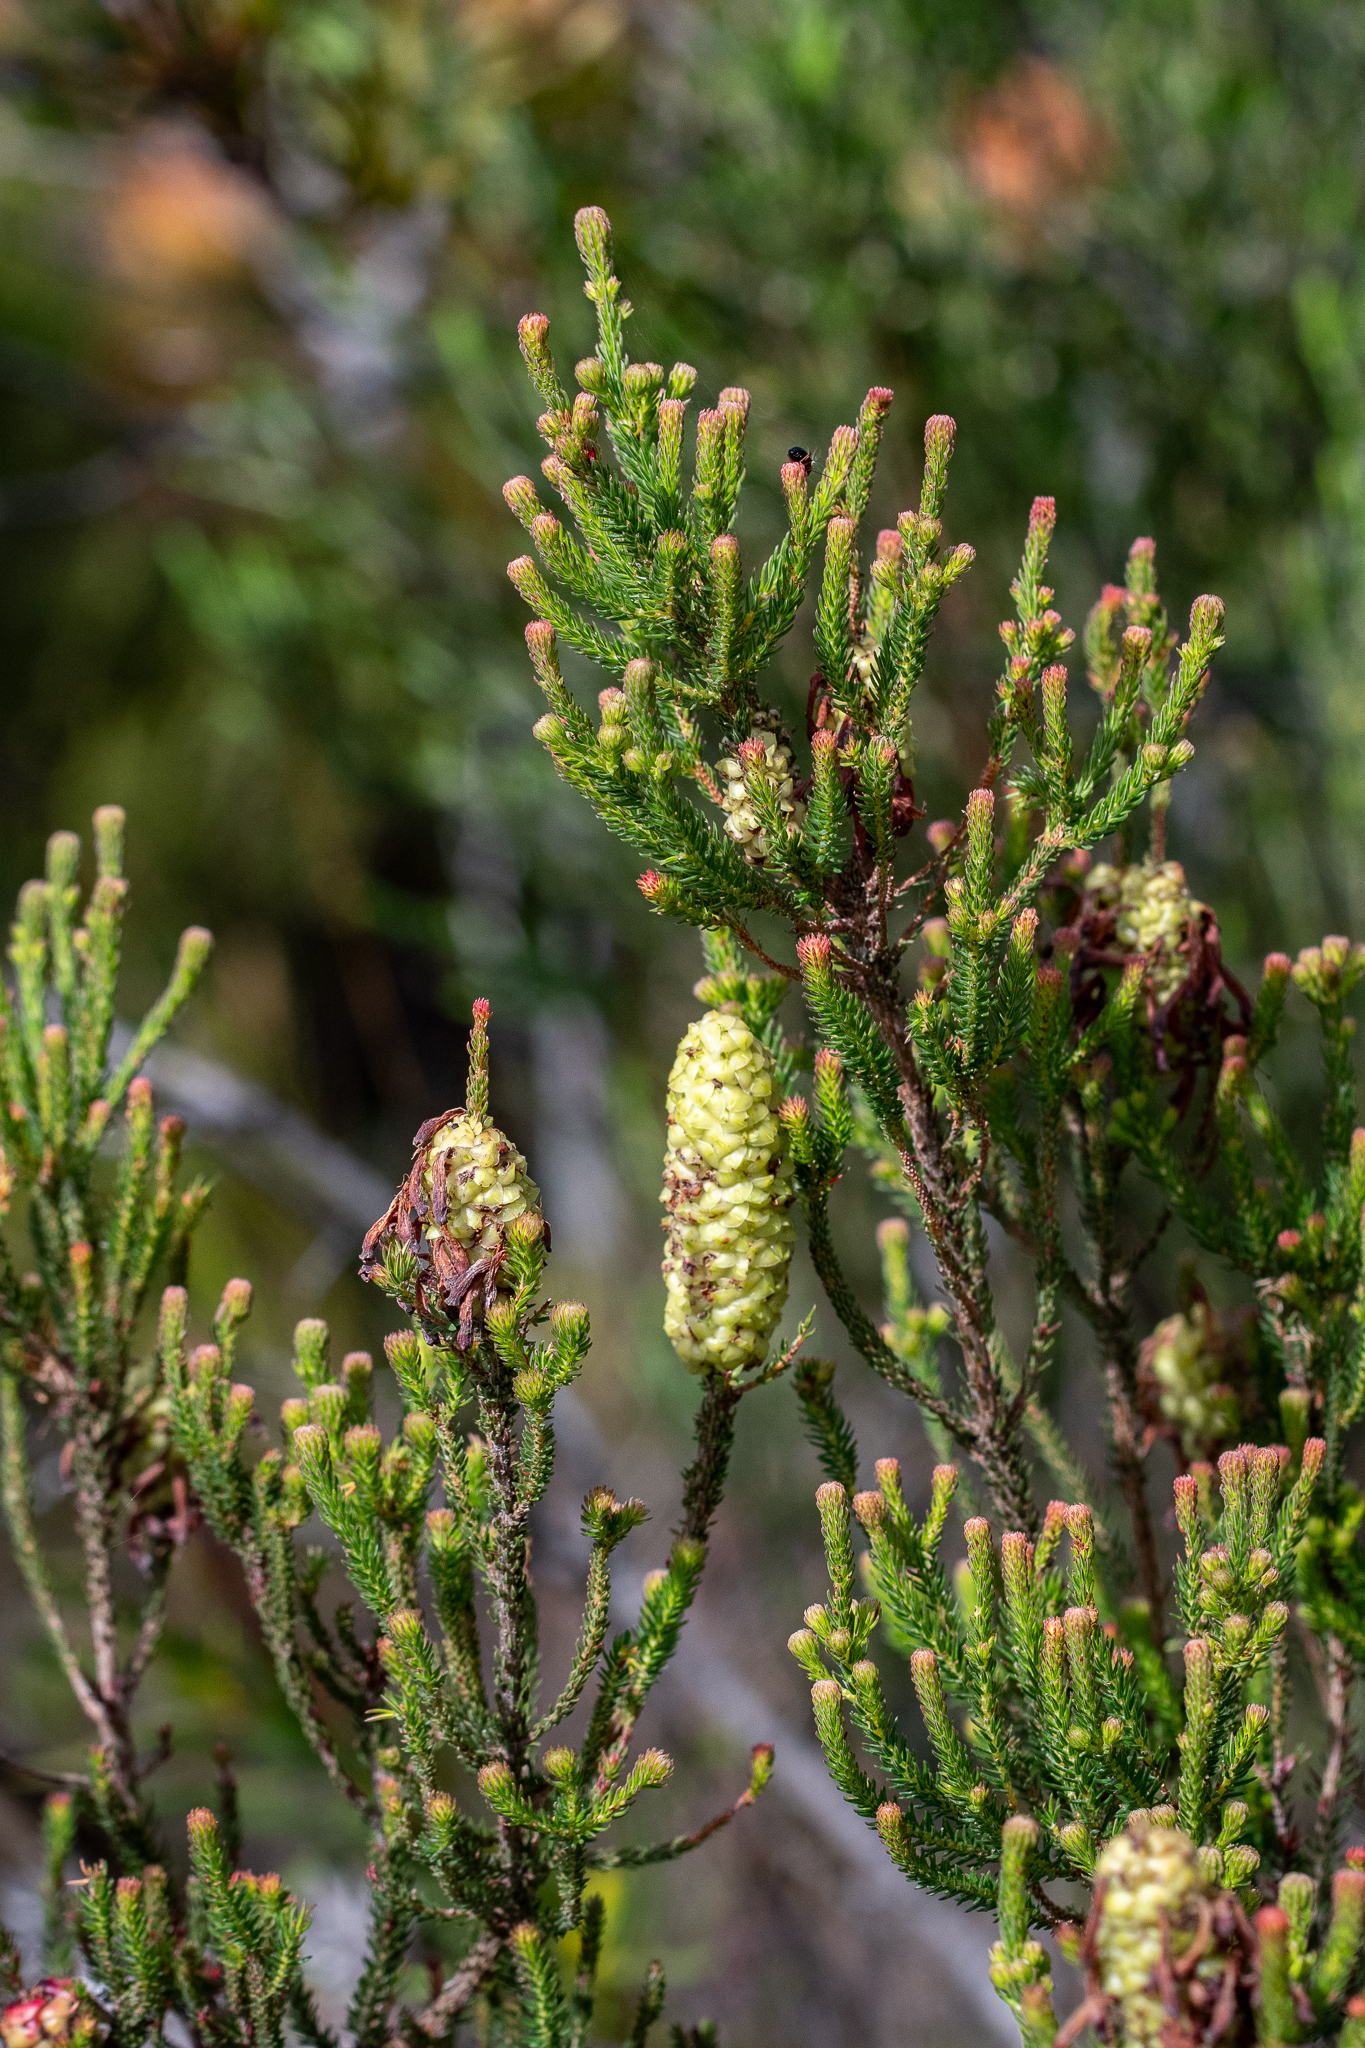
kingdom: Plantae
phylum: Tracheophyta
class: Magnoliopsida
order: Ericales
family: Ericaceae
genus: Erica
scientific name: Erica sessiliflora
